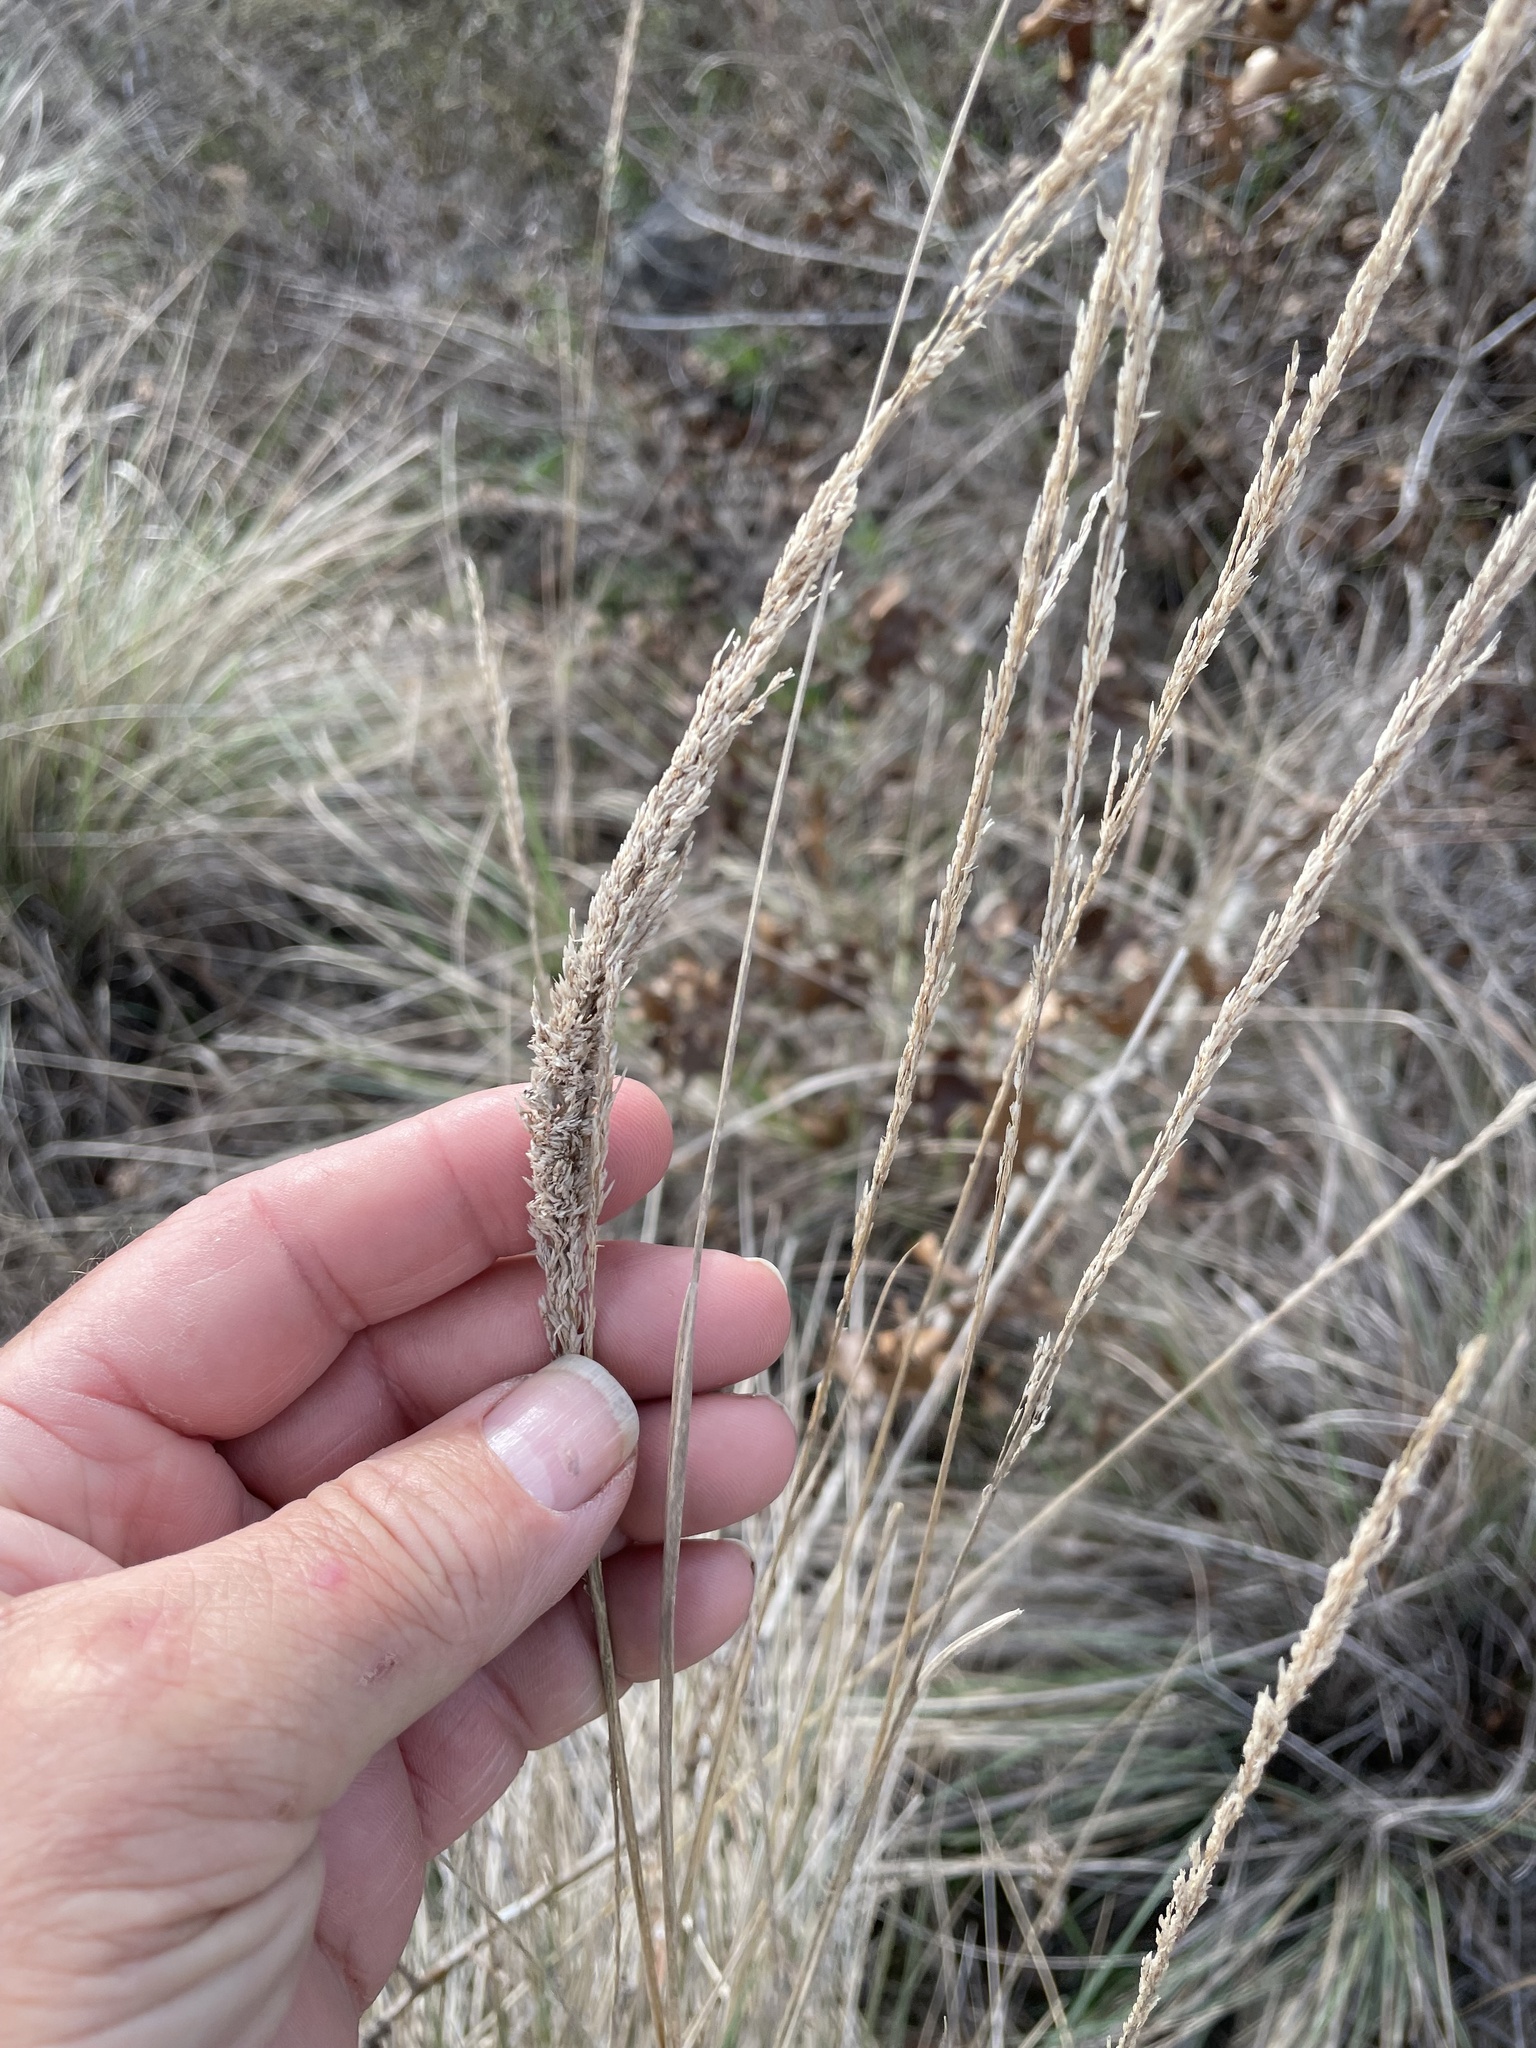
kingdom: Plantae
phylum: Tracheophyta
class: Liliopsida
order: Poales
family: Poaceae
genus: Muhlenbergia
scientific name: Muhlenbergia lindheimeri
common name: Lindheimer's muhly
